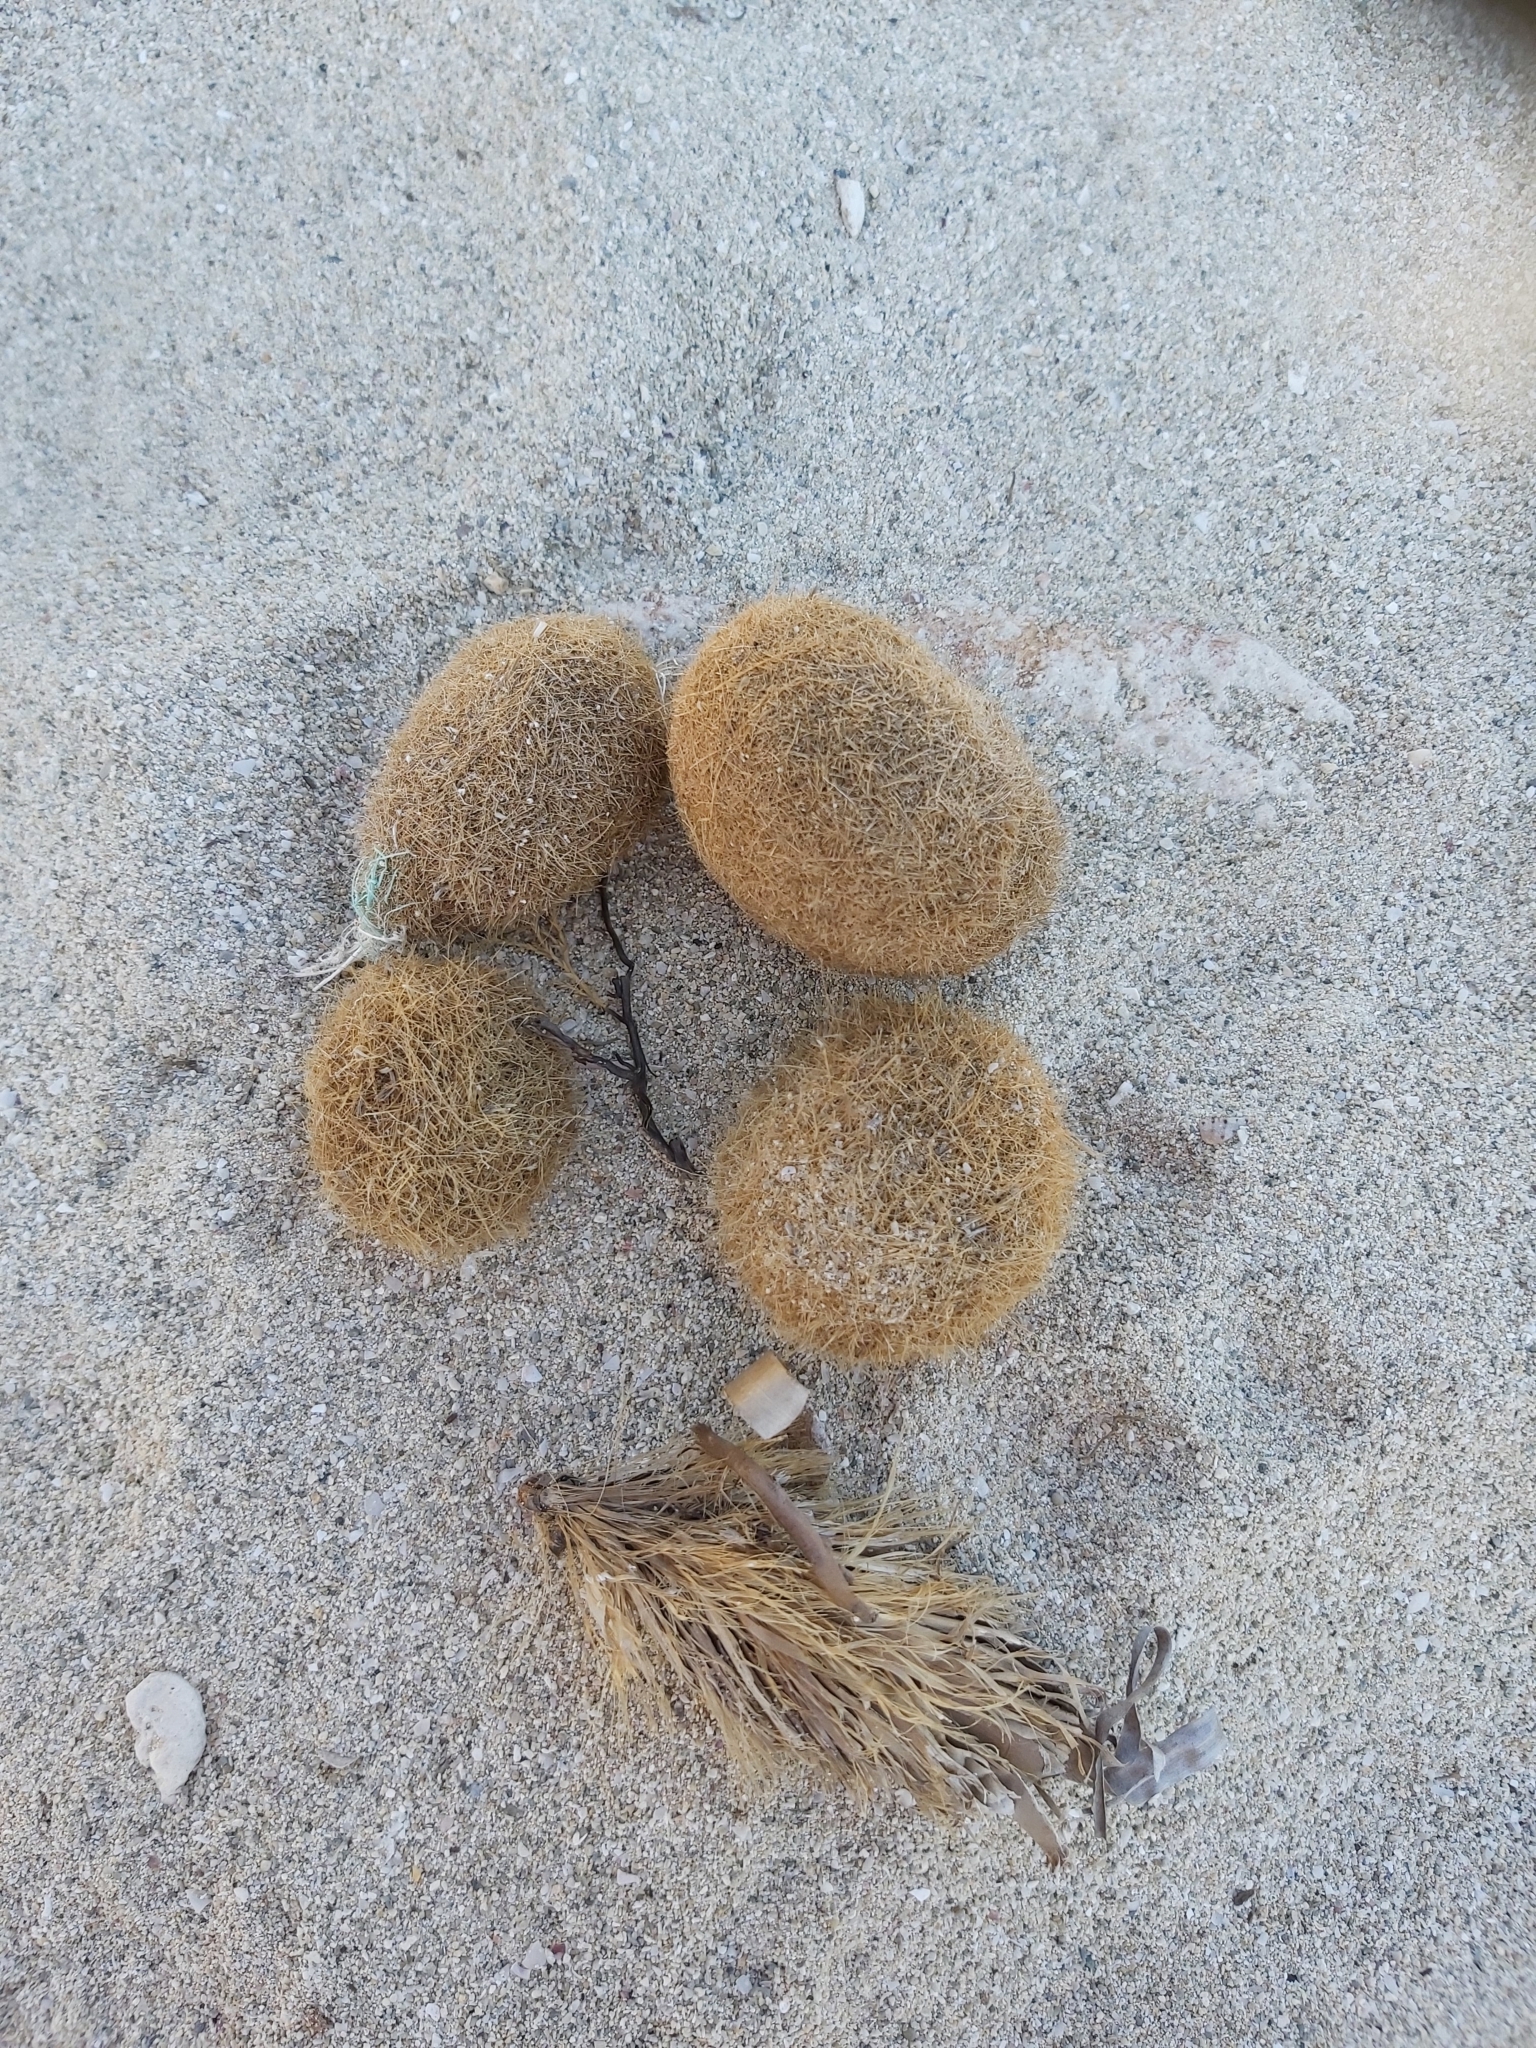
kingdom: Plantae
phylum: Tracheophyta
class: Liliopsida
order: Alismatales
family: Posidoniaceae
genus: Posidonia
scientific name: Posidonia oceanica
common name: Mediterranean tapeweed
